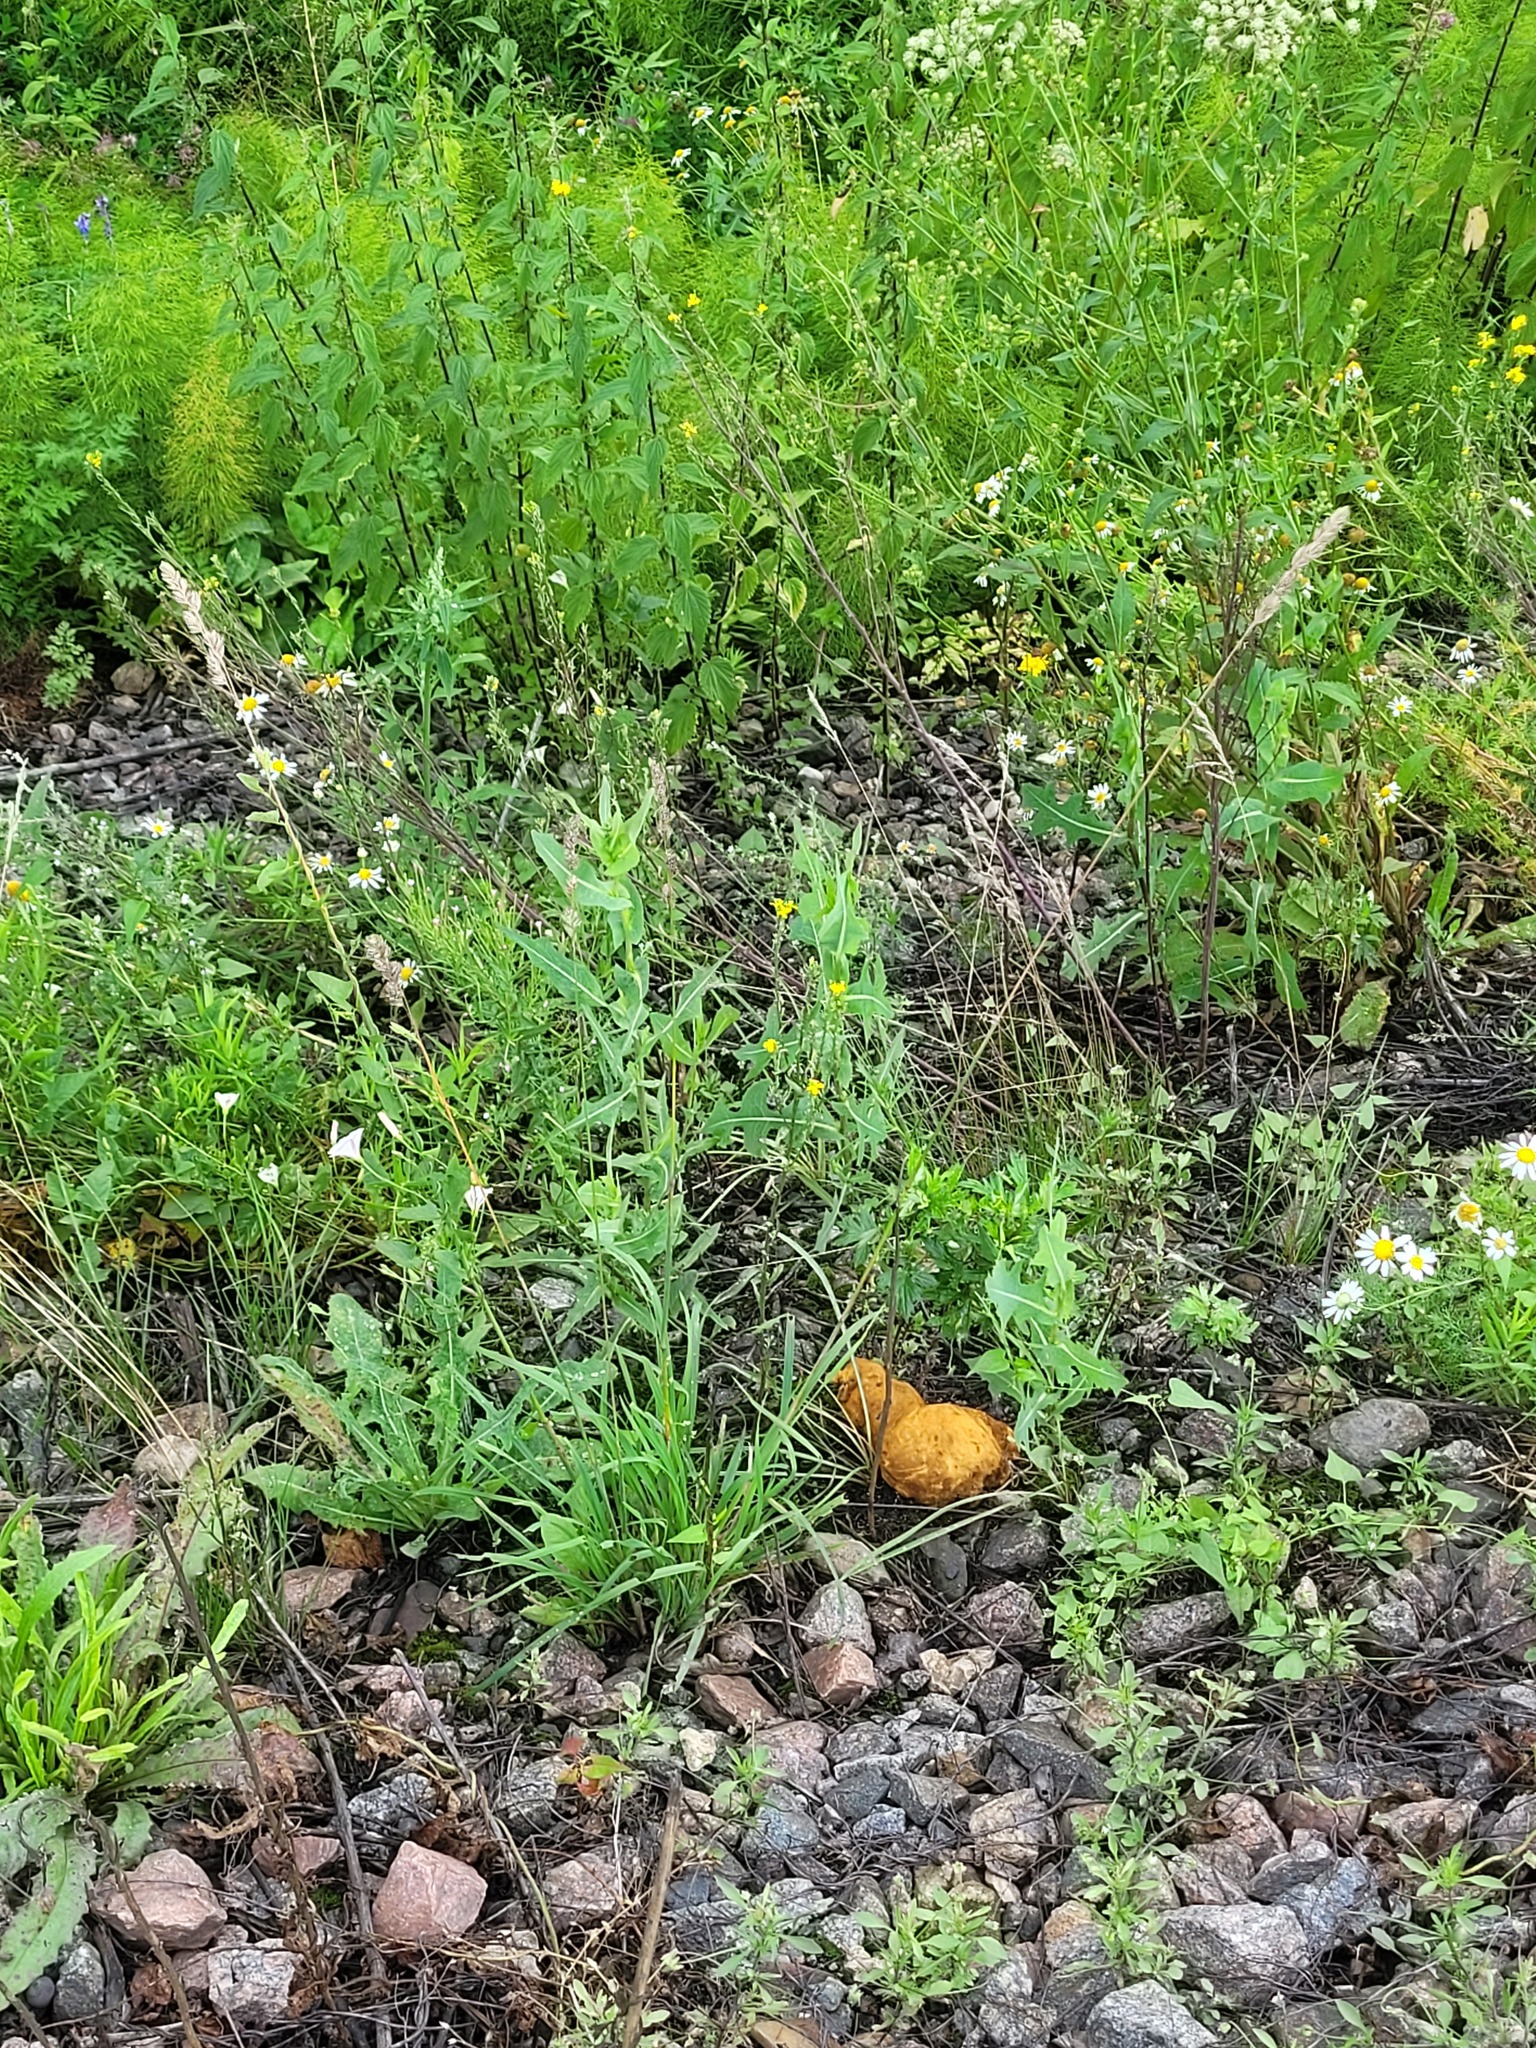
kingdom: Plantae
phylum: Tracheophyta
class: Magnoliopsida
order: Asterales
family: Asteraceae
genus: Lactuca
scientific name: Lactuca serriola
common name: Prickly lettuce
